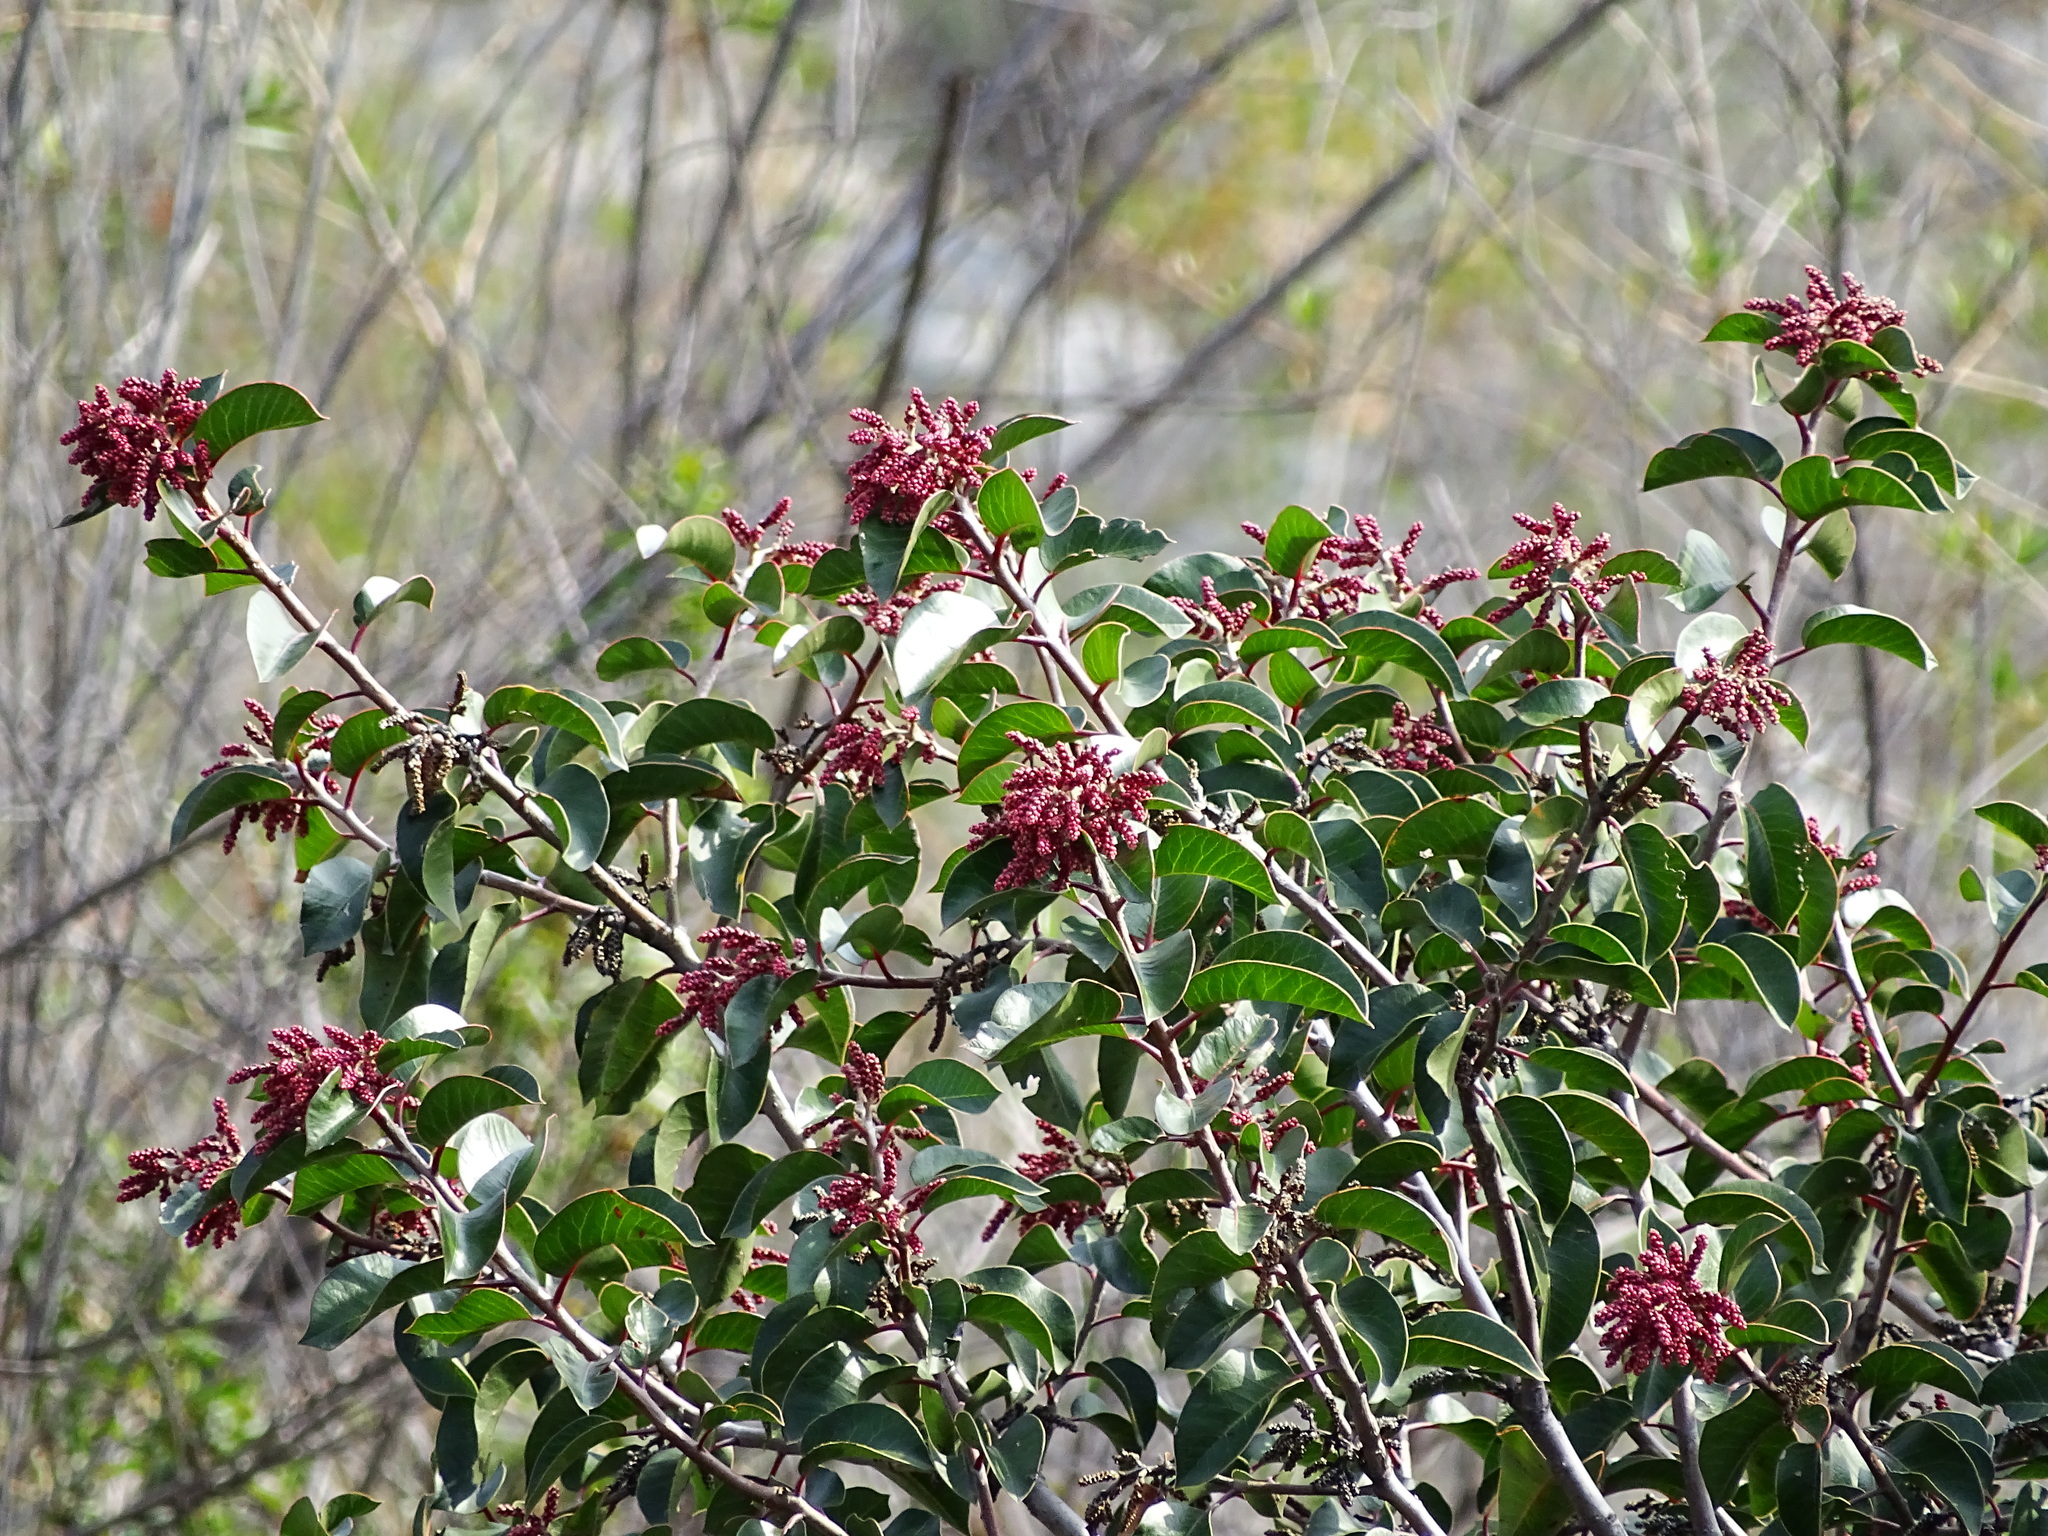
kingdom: Plantae
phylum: Tracheophyta
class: Magnoliopsida
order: Sapindales
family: Anacardiaceae
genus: Rhus
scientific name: Rhus ovata
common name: Sugar sumac
